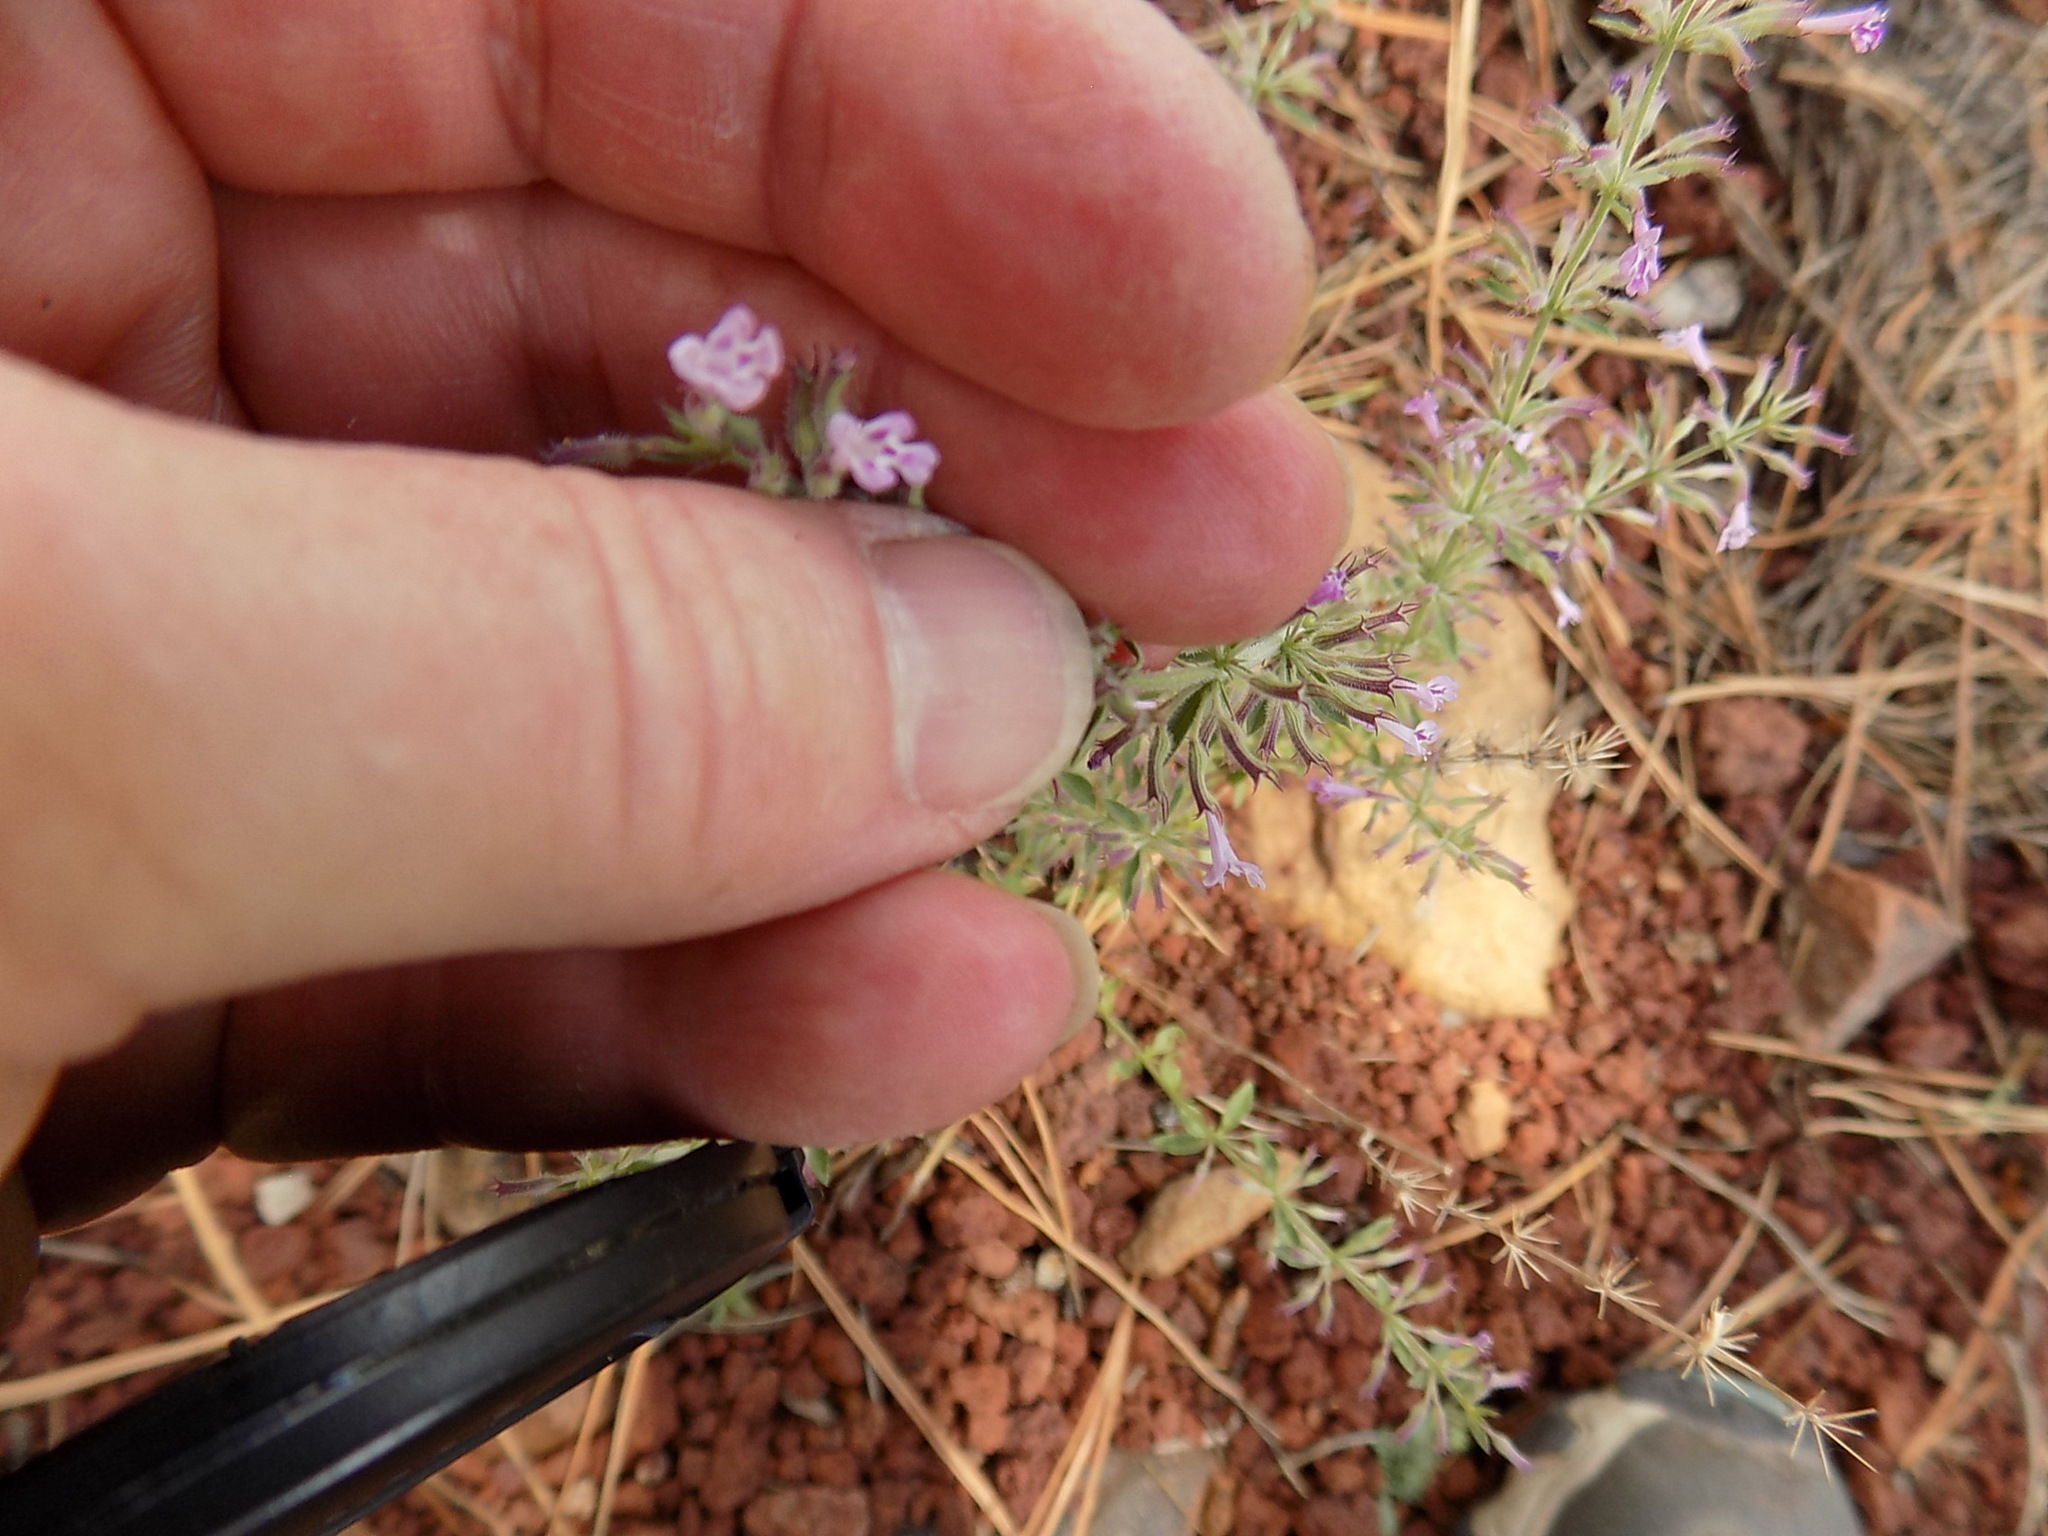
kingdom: Plantae
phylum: Tracheophyta
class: Magnoliopsida
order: Lamiales
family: Lamiaceae
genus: Hedeoma
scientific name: Hedeoma oblongifolia
